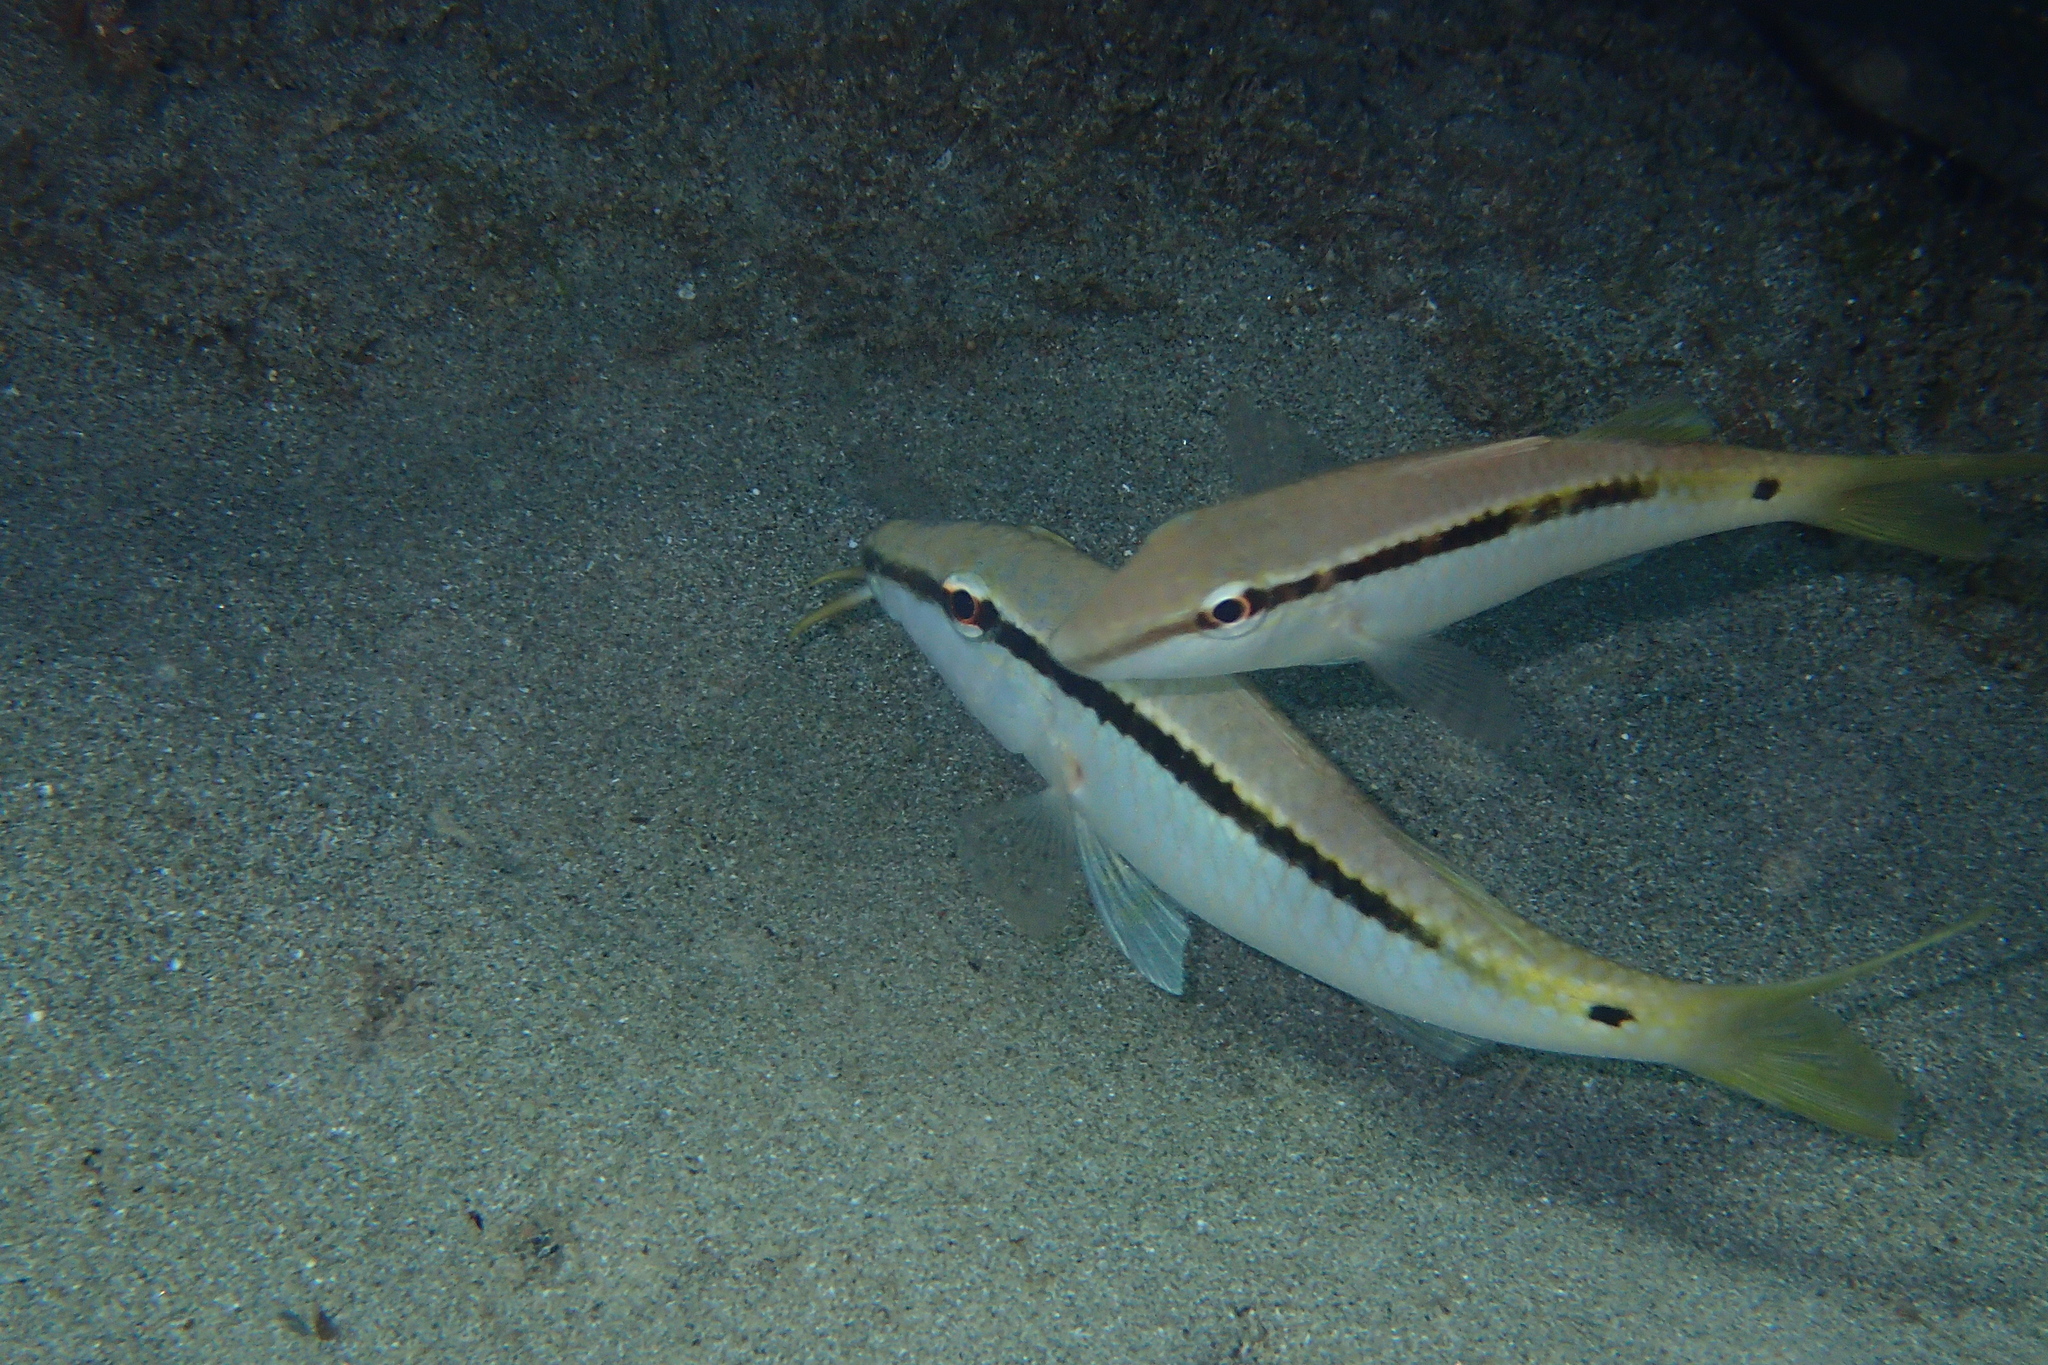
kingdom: Animalia
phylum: Chordata
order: Perciformes
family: Mullidae
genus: Parupeneus
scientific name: Parupeneus forsskali
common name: Red sea goatfish
